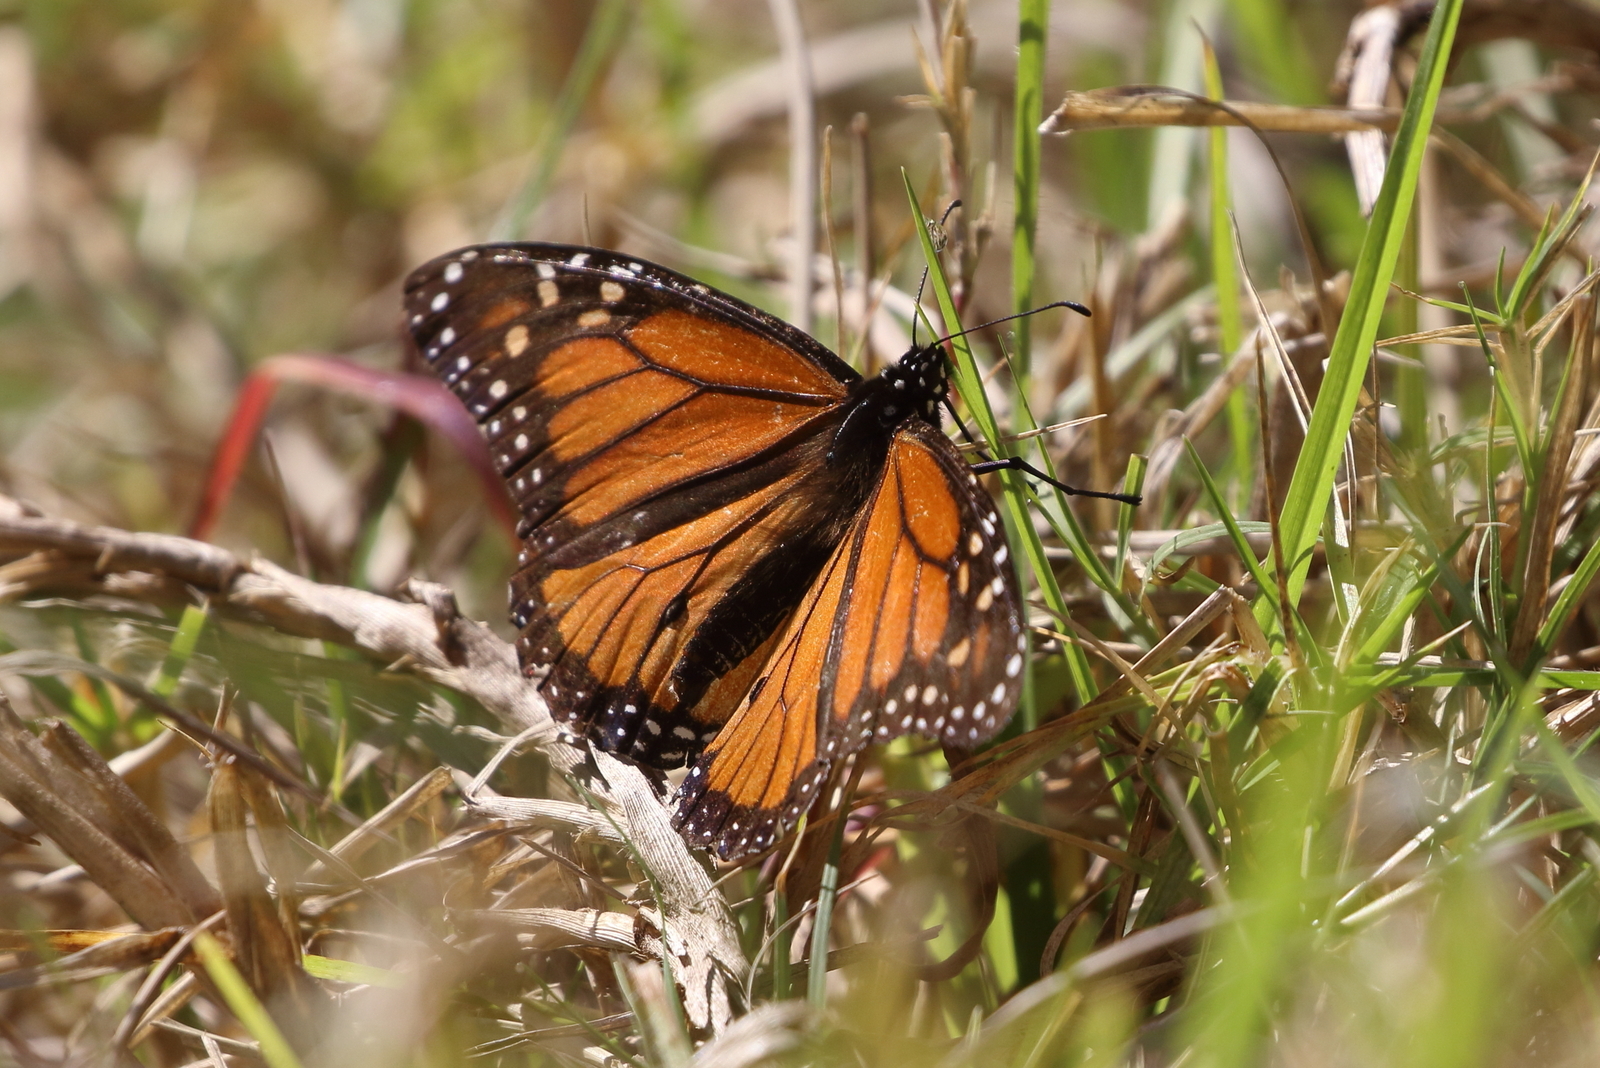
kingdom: Animalia
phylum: Arthropoda
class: Insecta
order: Lepidoptera
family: Nymphalidae
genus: Danaus
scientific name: Danaus plexippus
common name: Monarch
